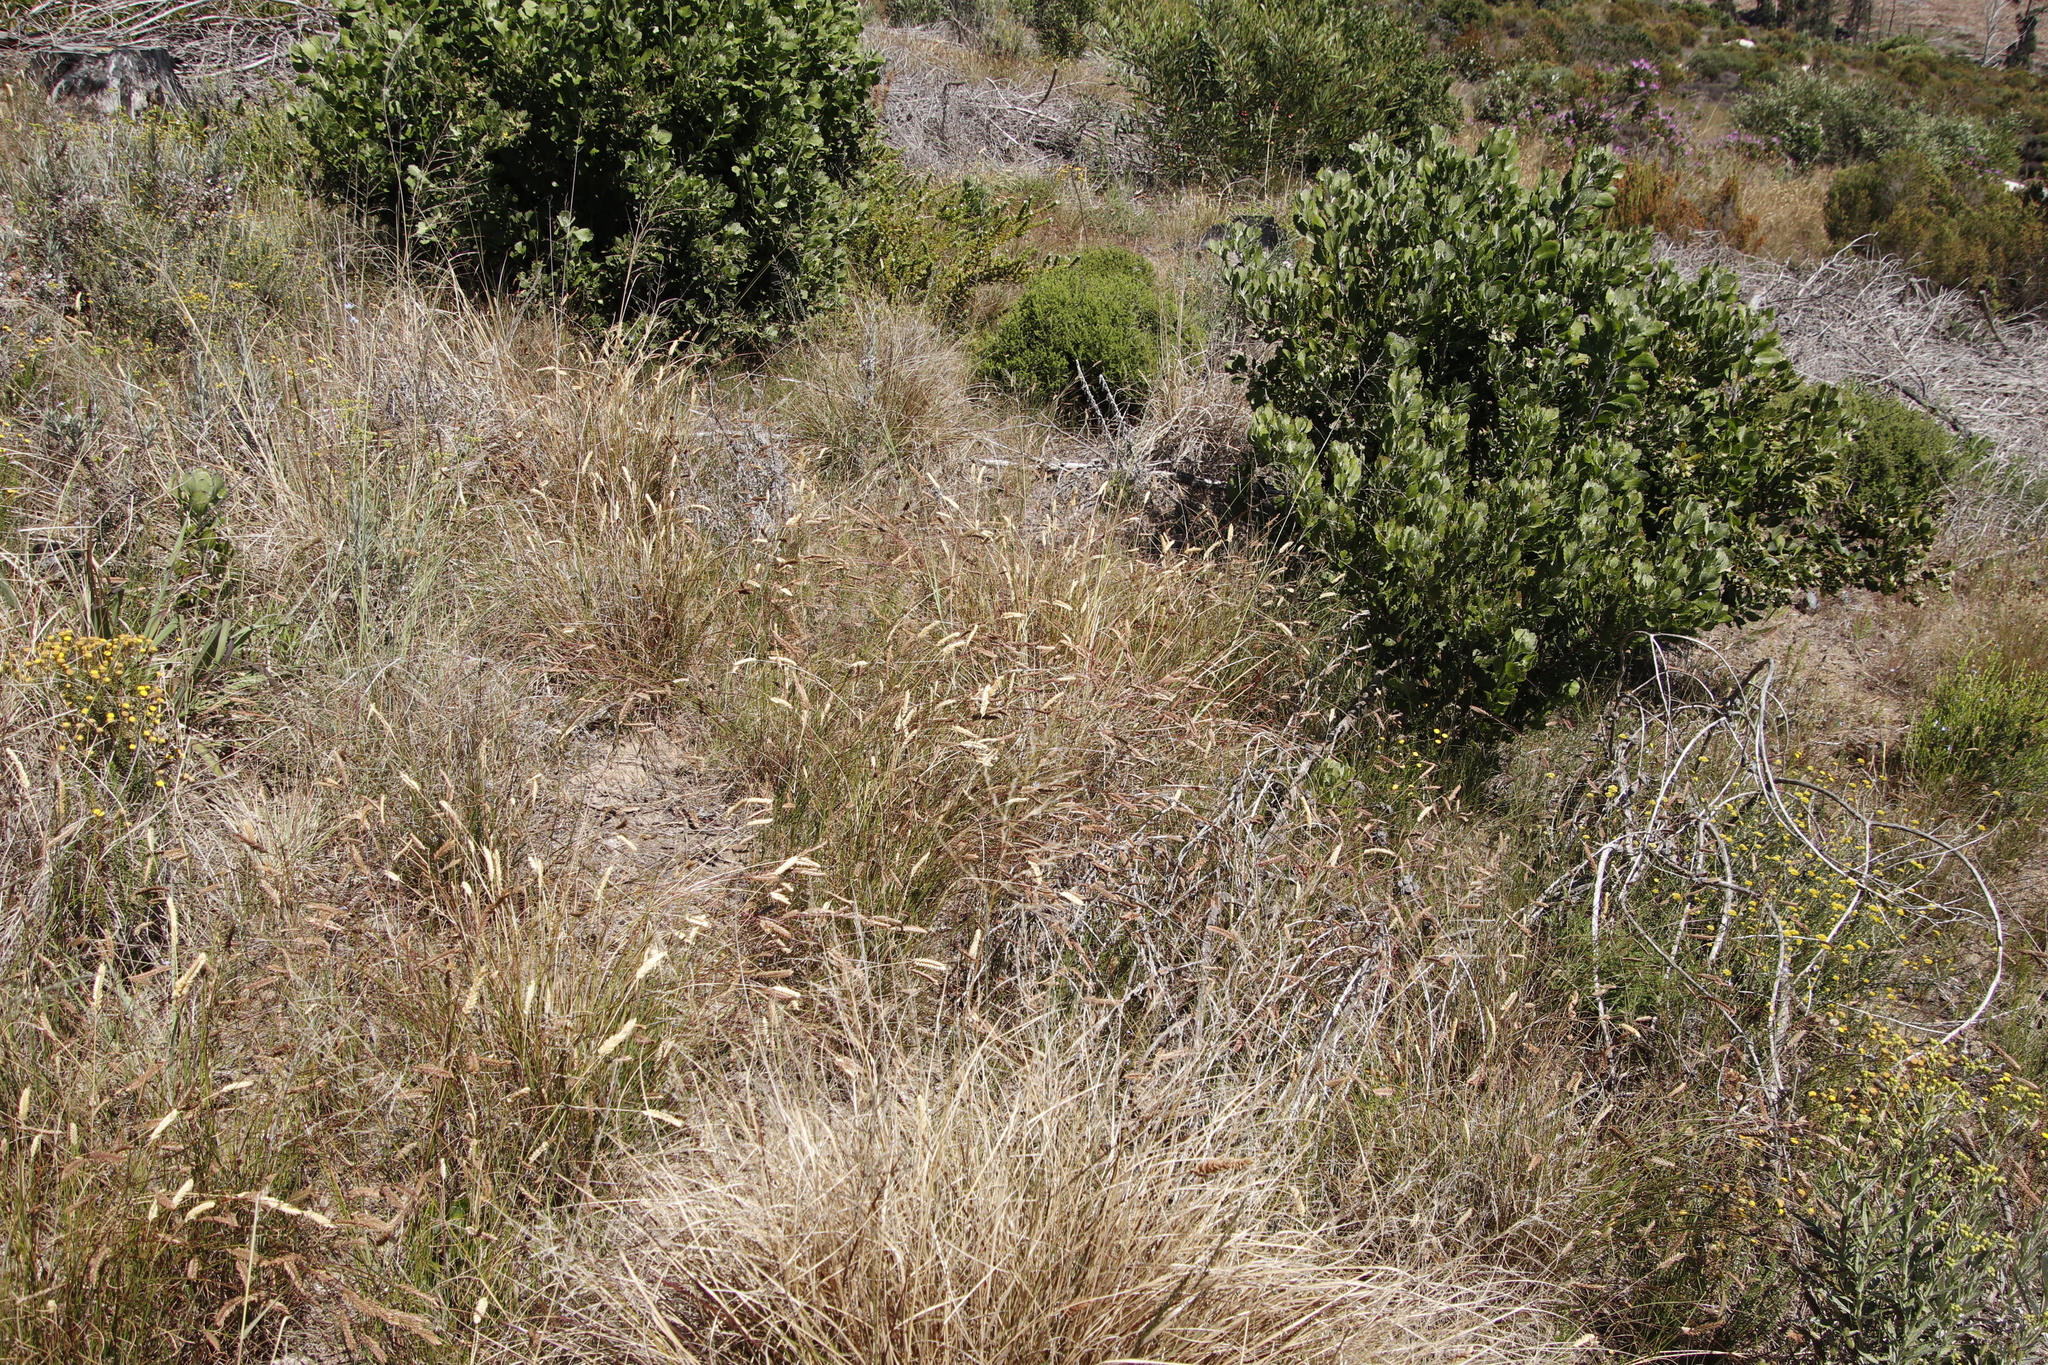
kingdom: Plantae
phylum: Tracheophyta
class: Liliopsida
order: Poales
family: Poaceae
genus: Tribolium
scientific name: Tribolium uniolae
